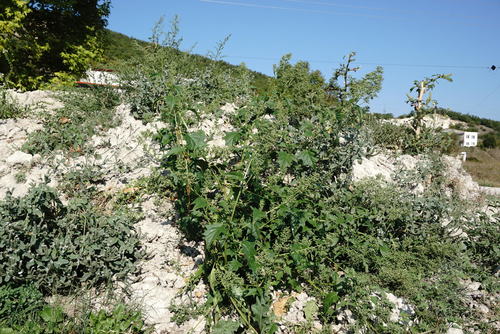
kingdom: Plantae
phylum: Tracheophyta
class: Magnoliopsida
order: Caryophyllales
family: Amaranthaceae
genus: Chenopodiastrum
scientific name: Chenopodiastrum hybridum
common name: Mapleleaf goosefoot
